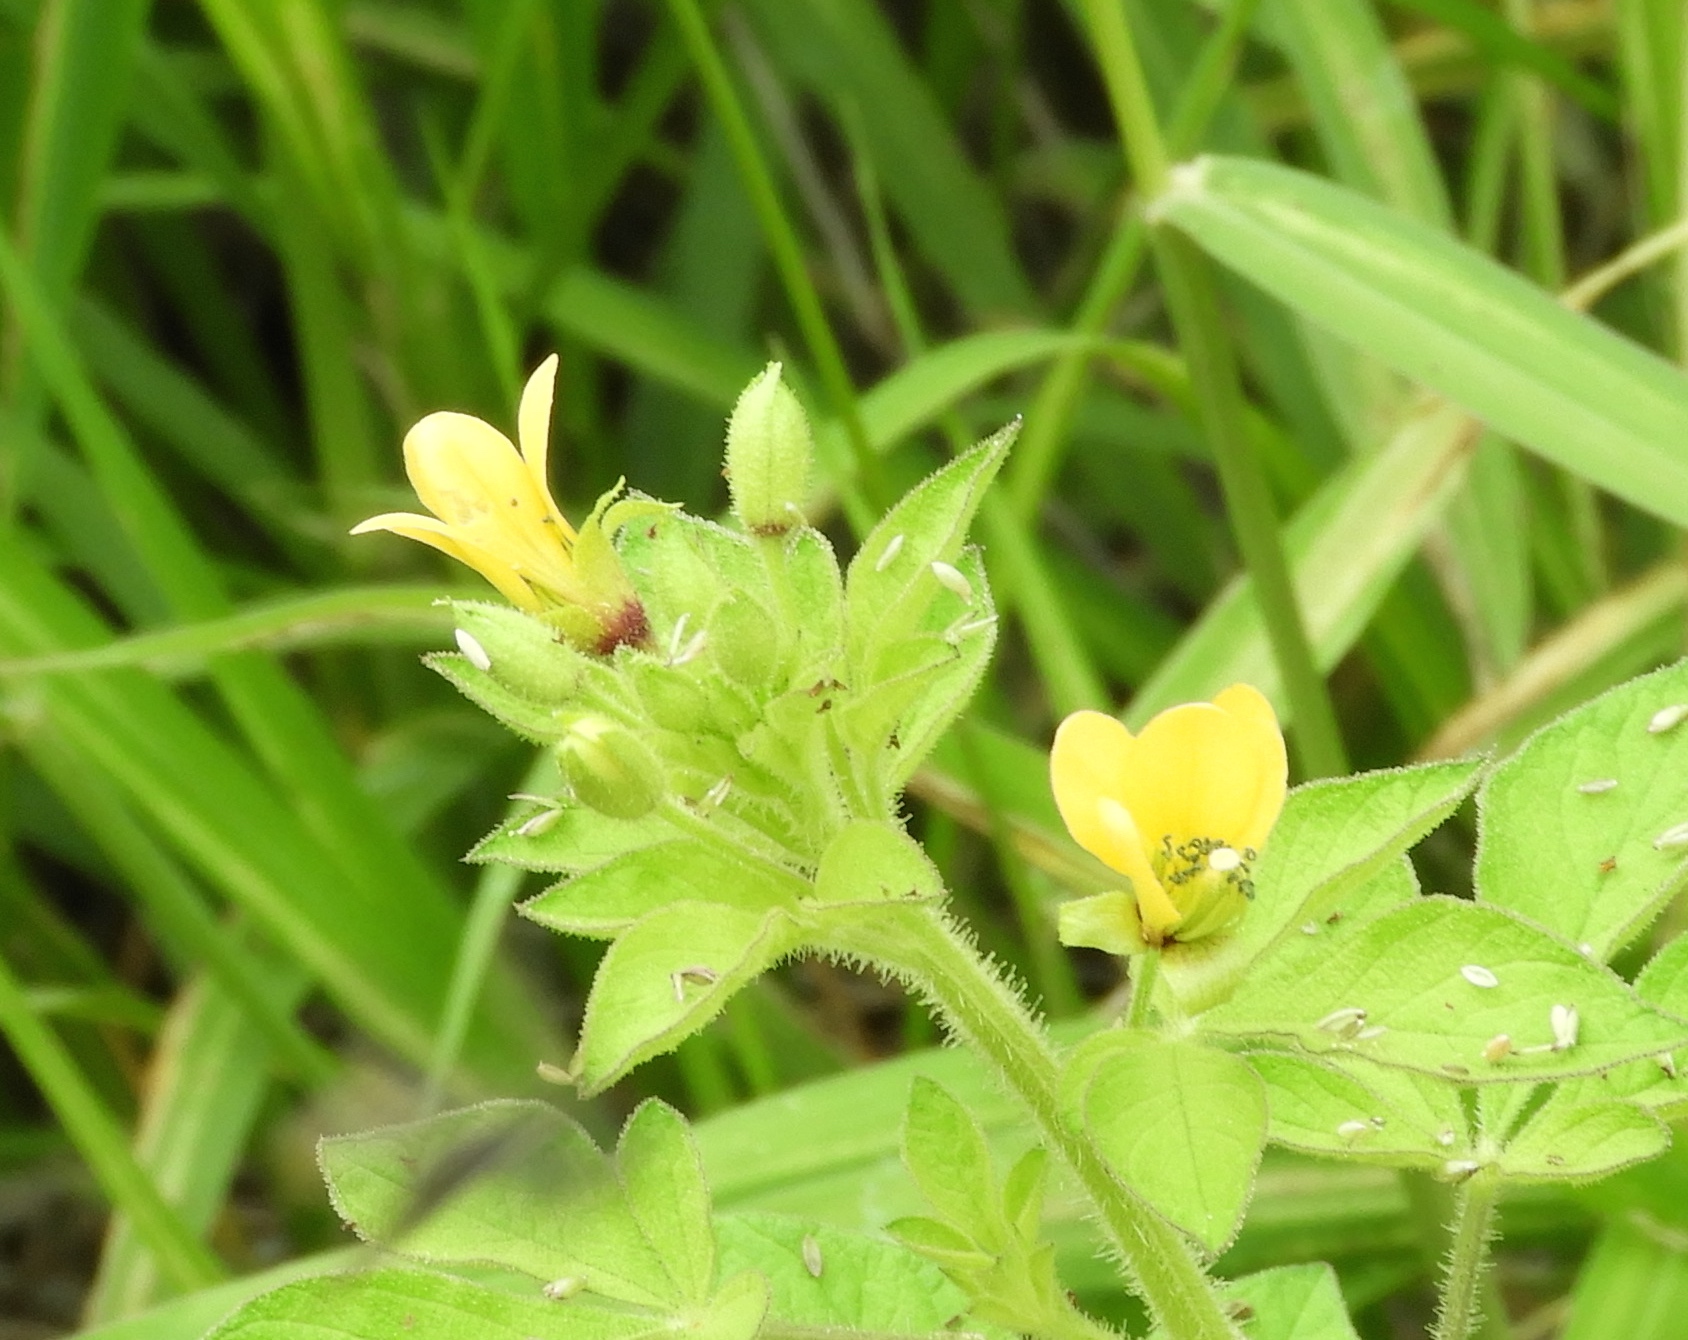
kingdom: Plantae
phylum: Tracheophyta
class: Magnoliopsida
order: Brassicales
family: Cleomaceae
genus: Arivela
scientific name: Arivela viscosa
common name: Asian spiderflower
